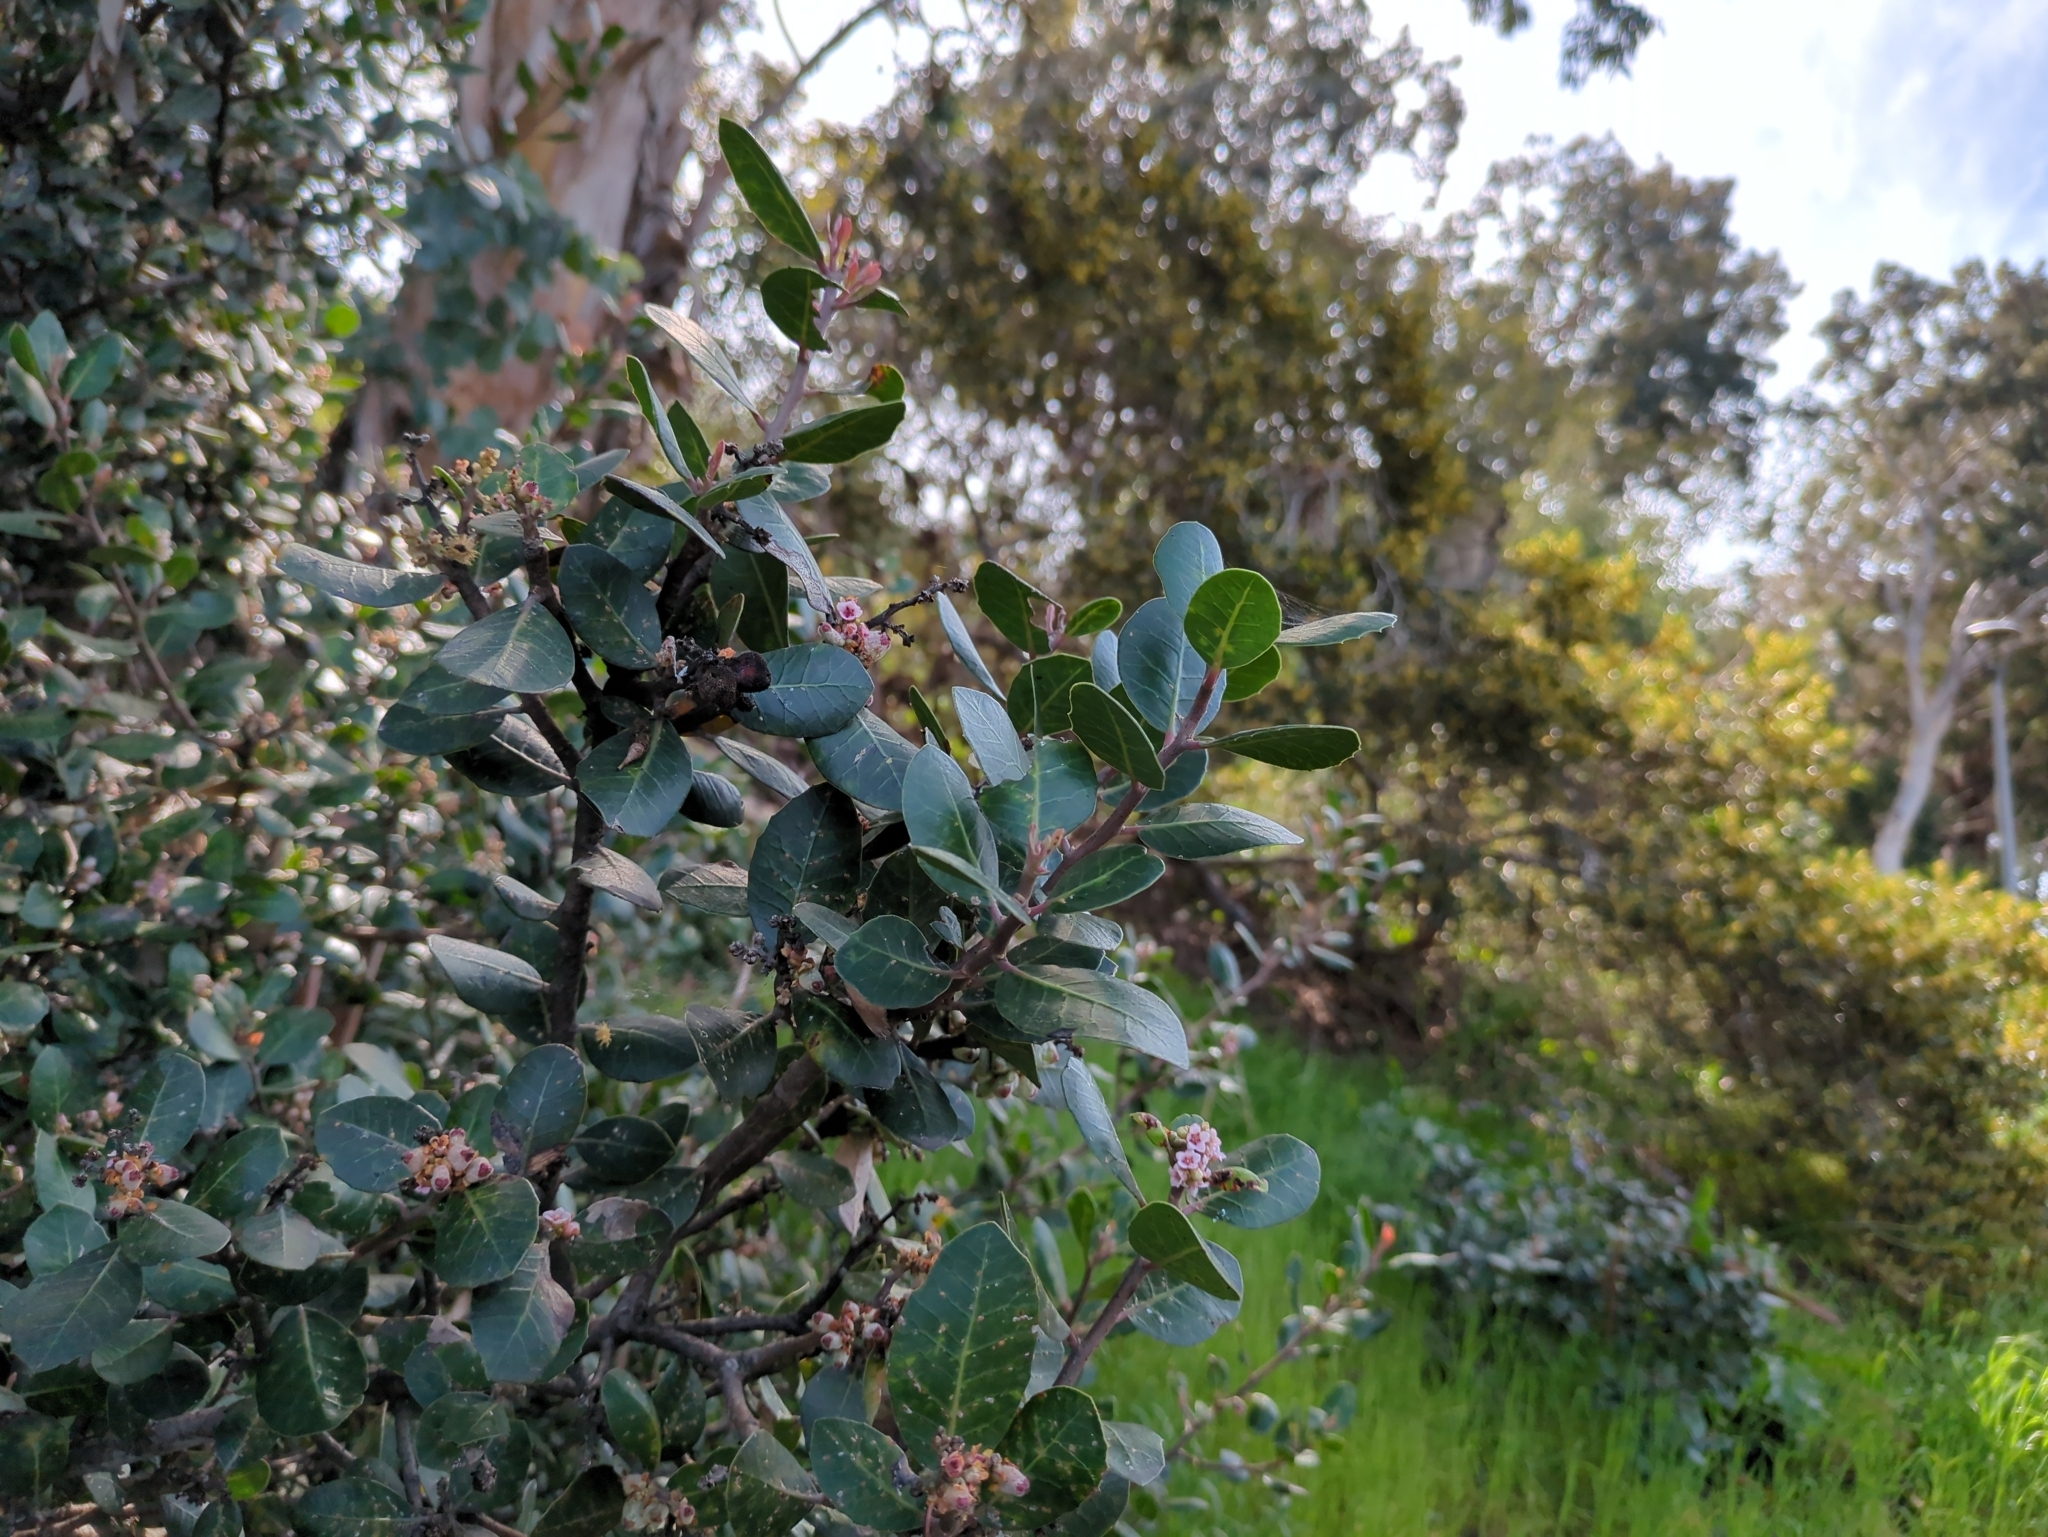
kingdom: Plantae
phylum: Tracheophyta
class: Magnoliopsida
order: Sapindales
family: Anacardiaceae
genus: Rhus
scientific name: Rhus integrifolia
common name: Lemonade sumac
